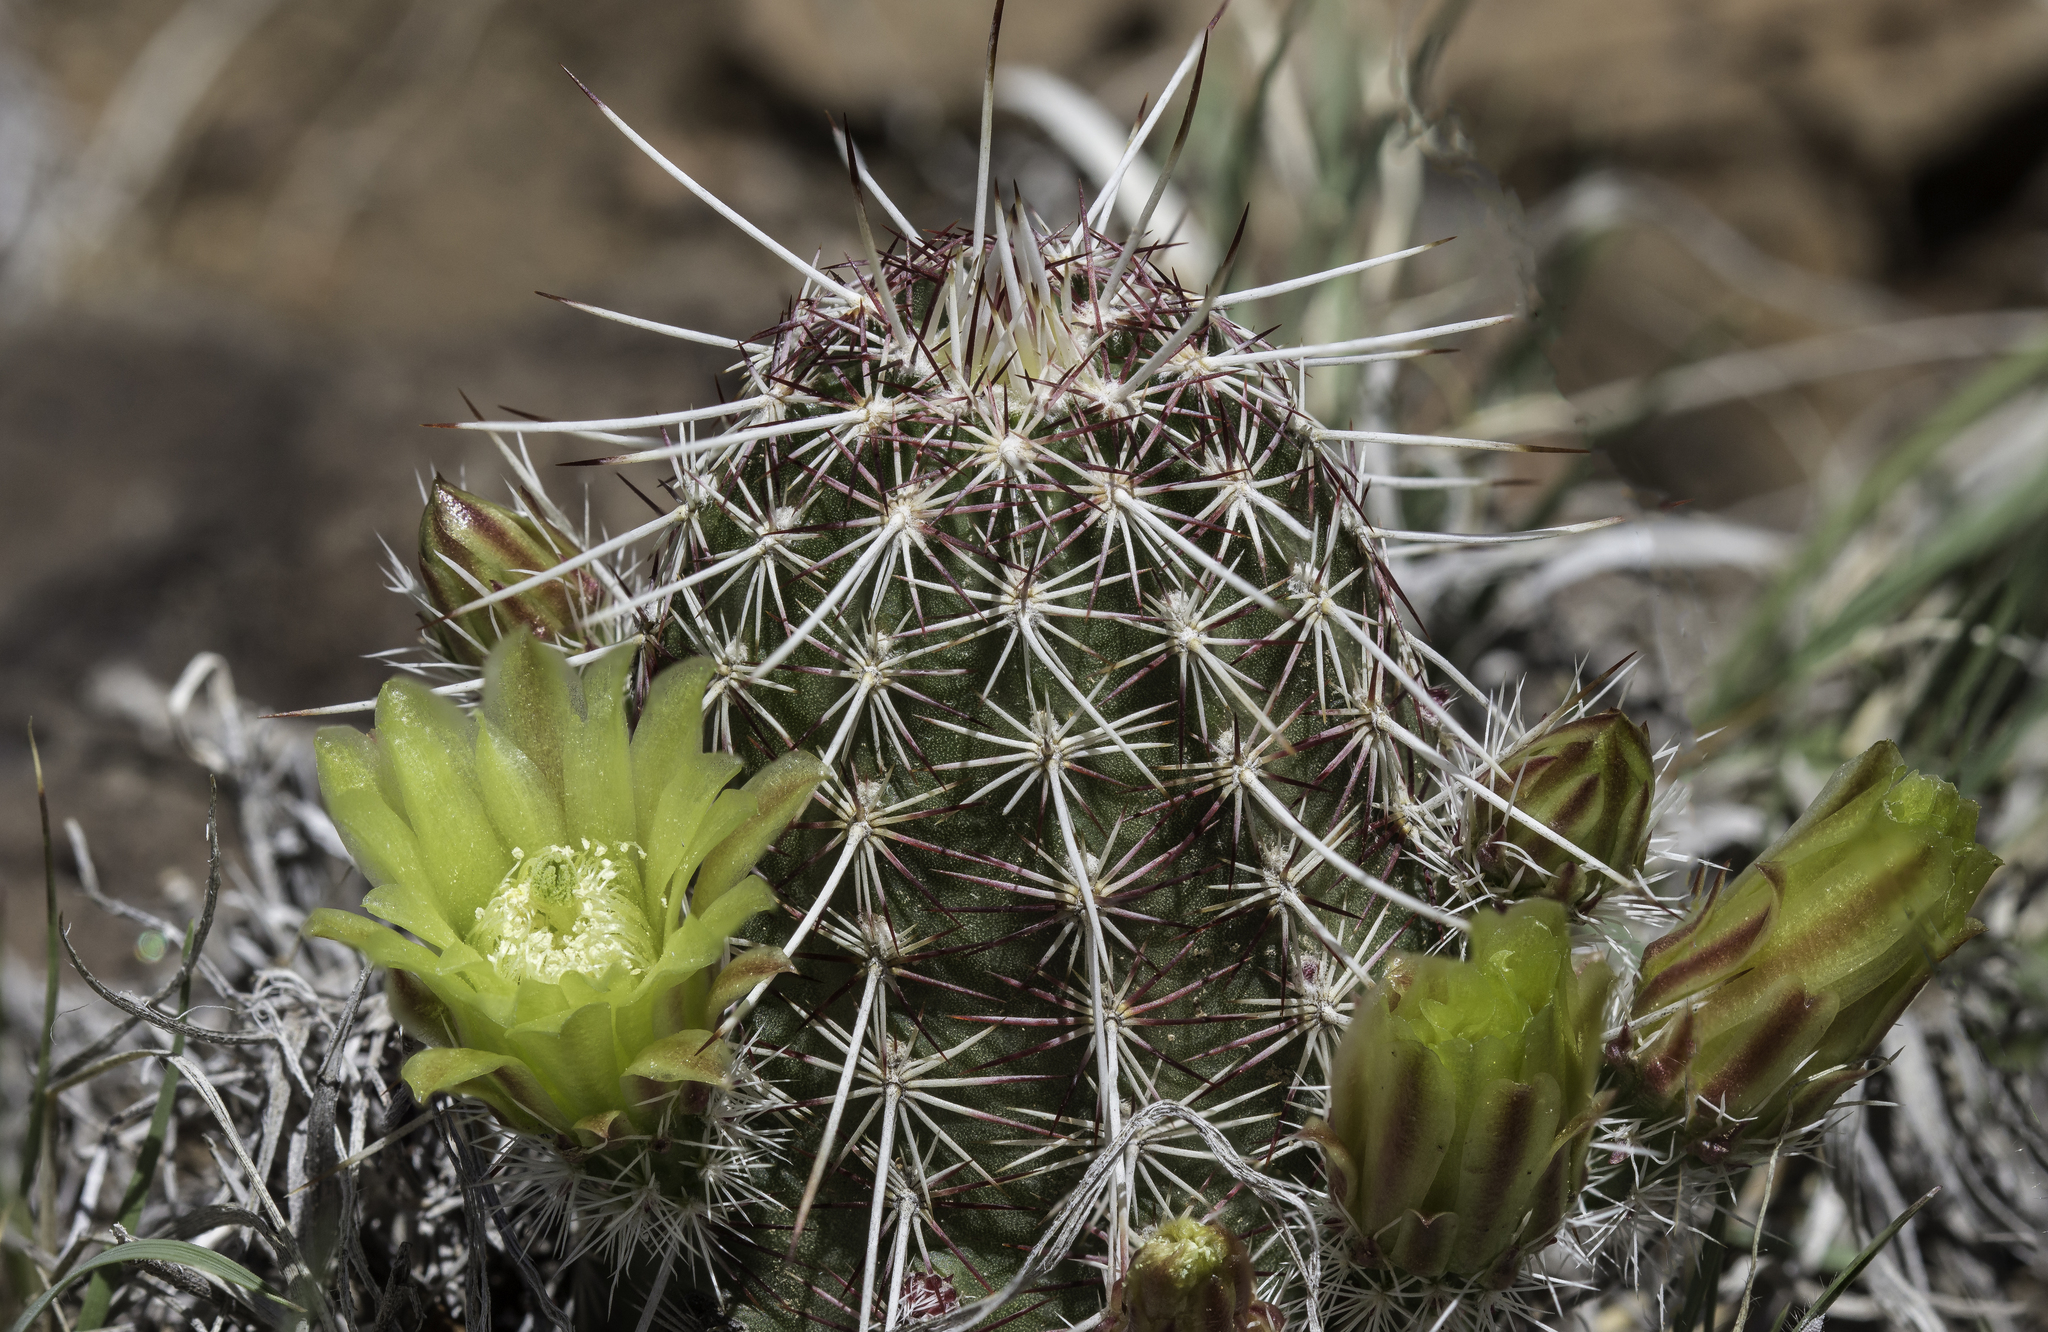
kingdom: Plantae
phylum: Tracheophyta
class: Magnoliopsida
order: Caryophyllales
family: Cactaceae
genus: Echinocereus
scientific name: Echinocereus viridiflorus
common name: Nylon hedgehog cactus
